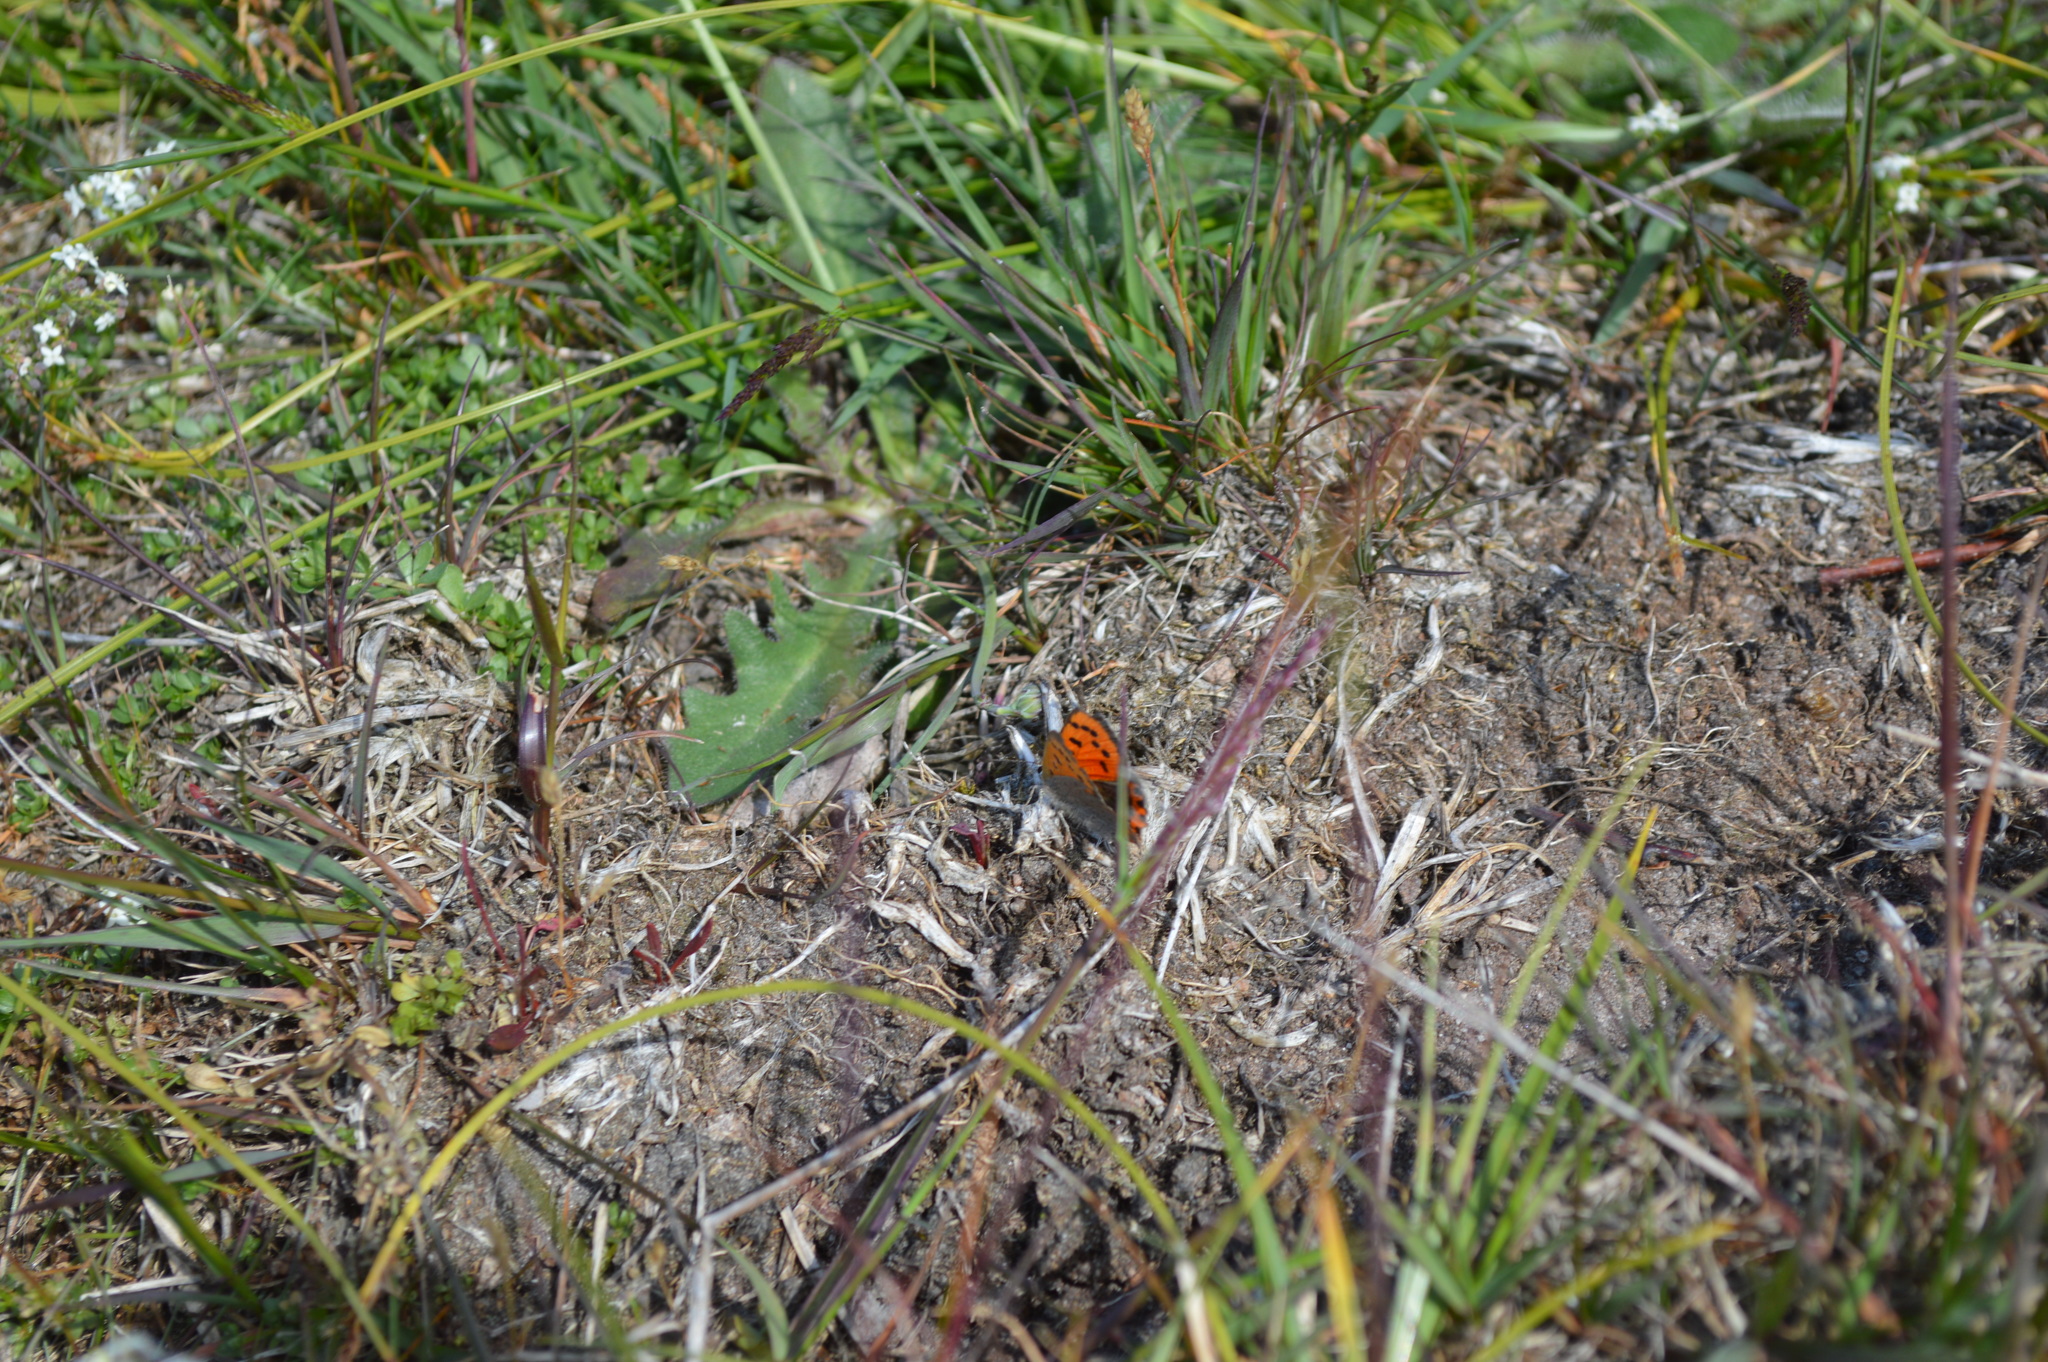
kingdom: Animalia
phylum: Arthropoda
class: Insecta
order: Lepidoptera
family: Lycaenidae
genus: Lycaena
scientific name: Lycaena phlaeas
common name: Small copper
